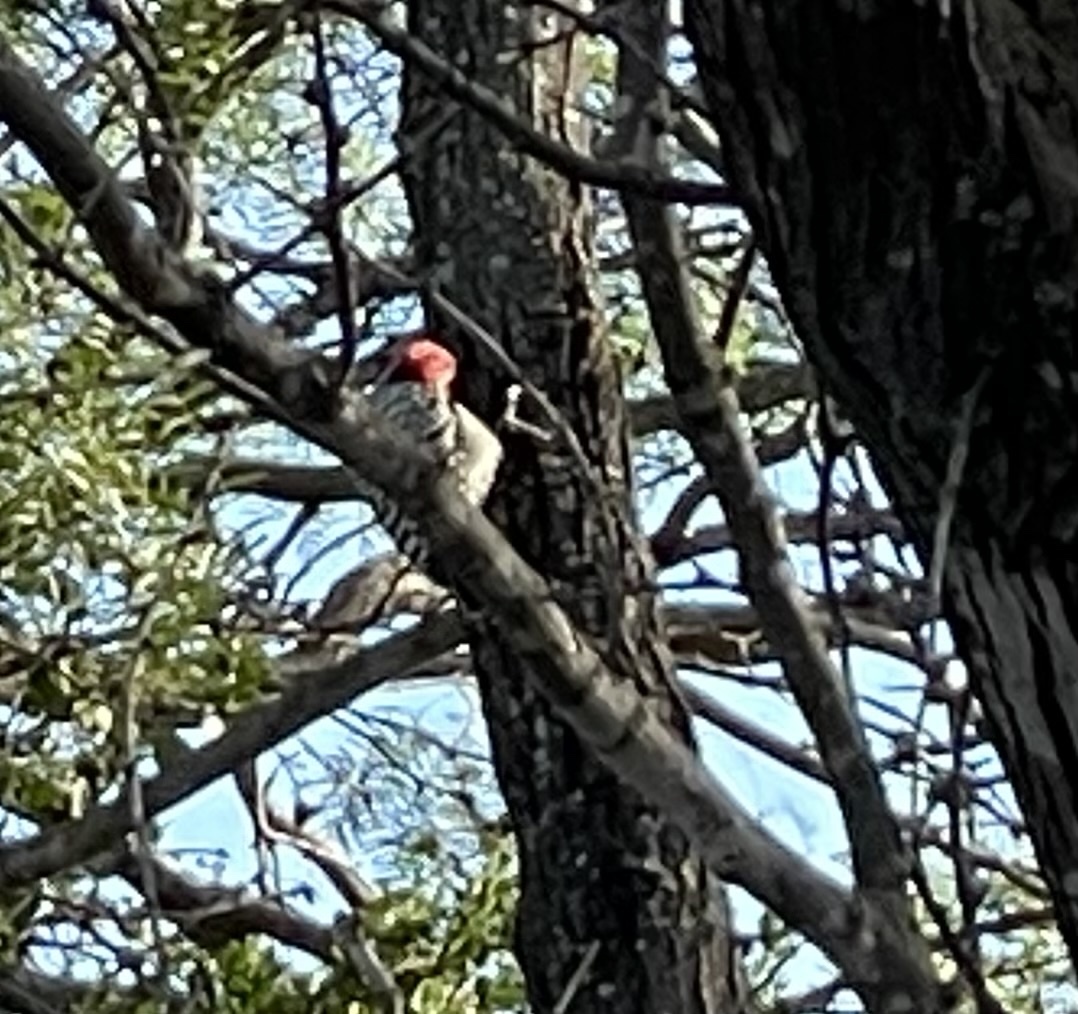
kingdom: Animalia
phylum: Chordata
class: Aves
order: Piciformes
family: Picidae
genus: Dryobates
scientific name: Dryobates scalaris
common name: Ladder-backed woodpecker
